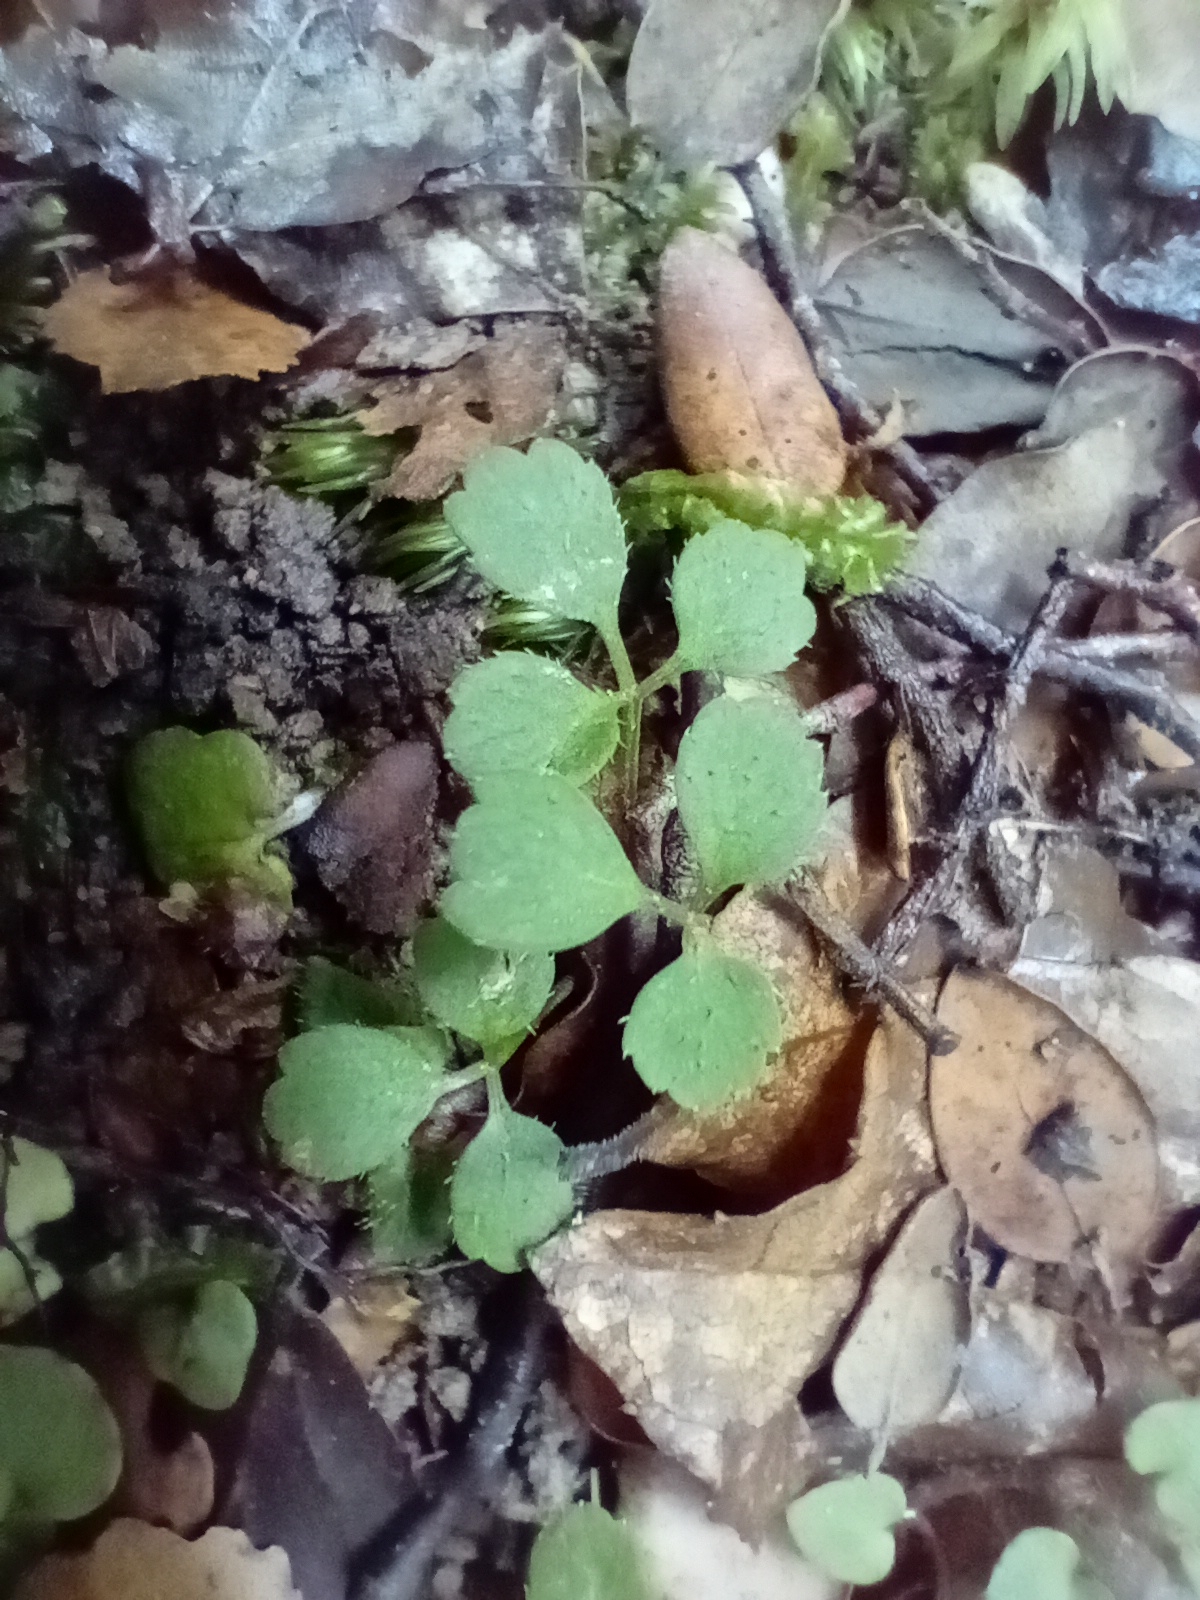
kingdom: Plantae
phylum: Tracheophyta
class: Magnoliopsida
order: Apiales
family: Apiaceae
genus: Azorella
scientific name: Azorella hookeri
